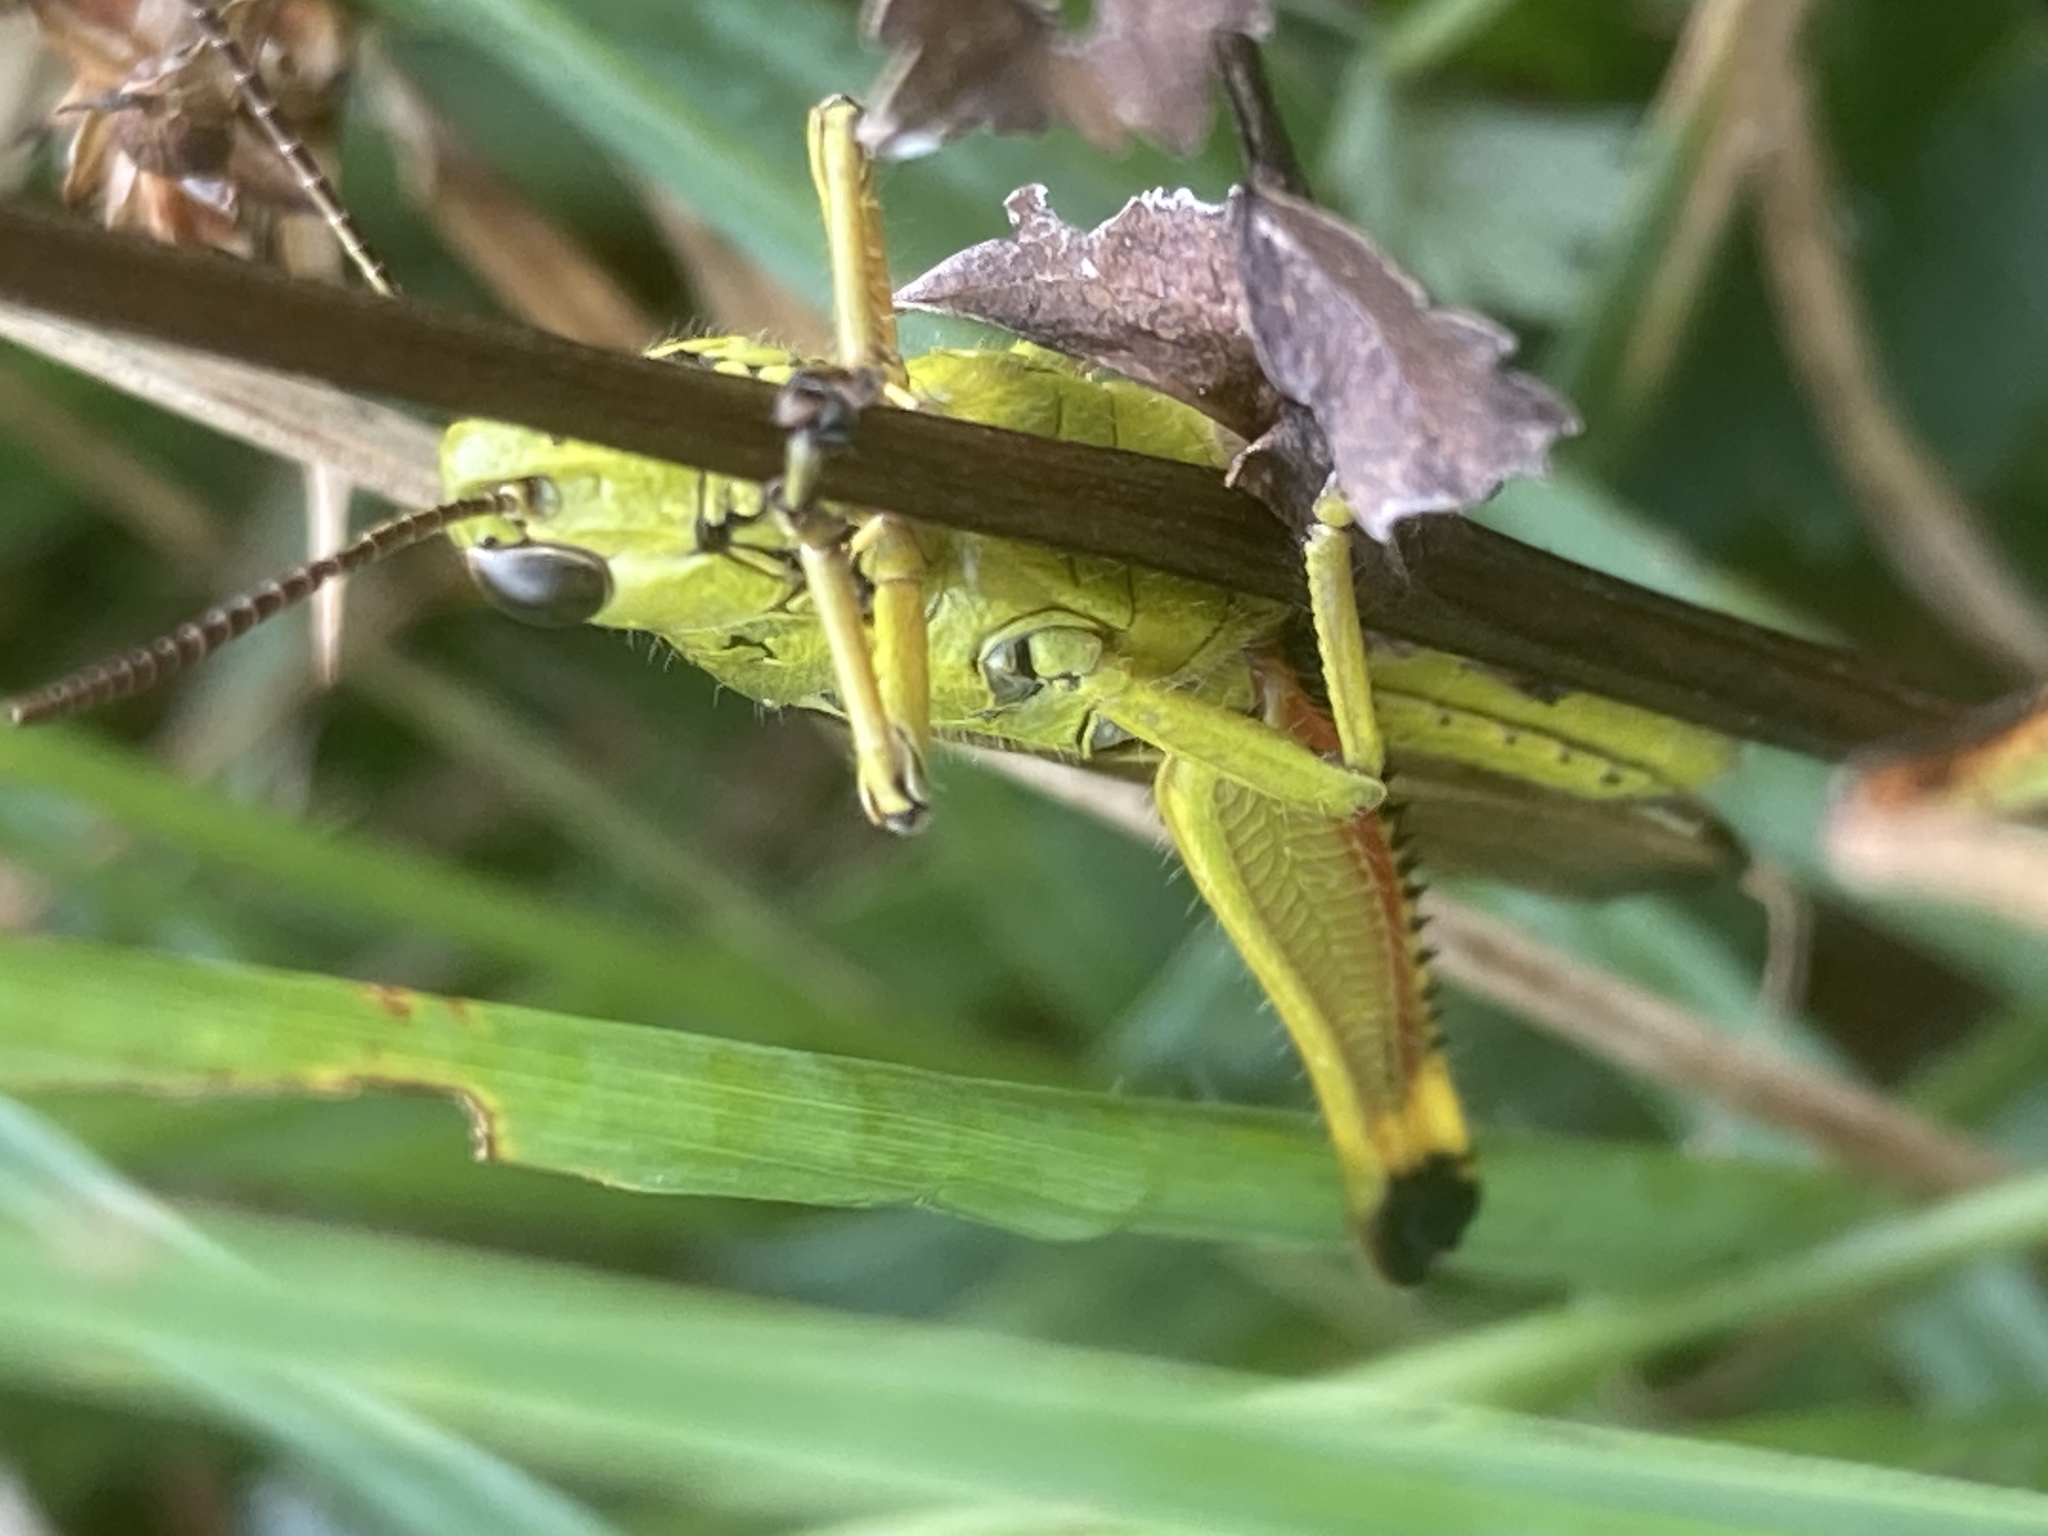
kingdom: Animalia
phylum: Arthropoda
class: Insecta
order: Orthoptera
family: Acrididae
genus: Stethophyma
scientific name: Stethophyma grossum
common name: Large marsh grasshopper
